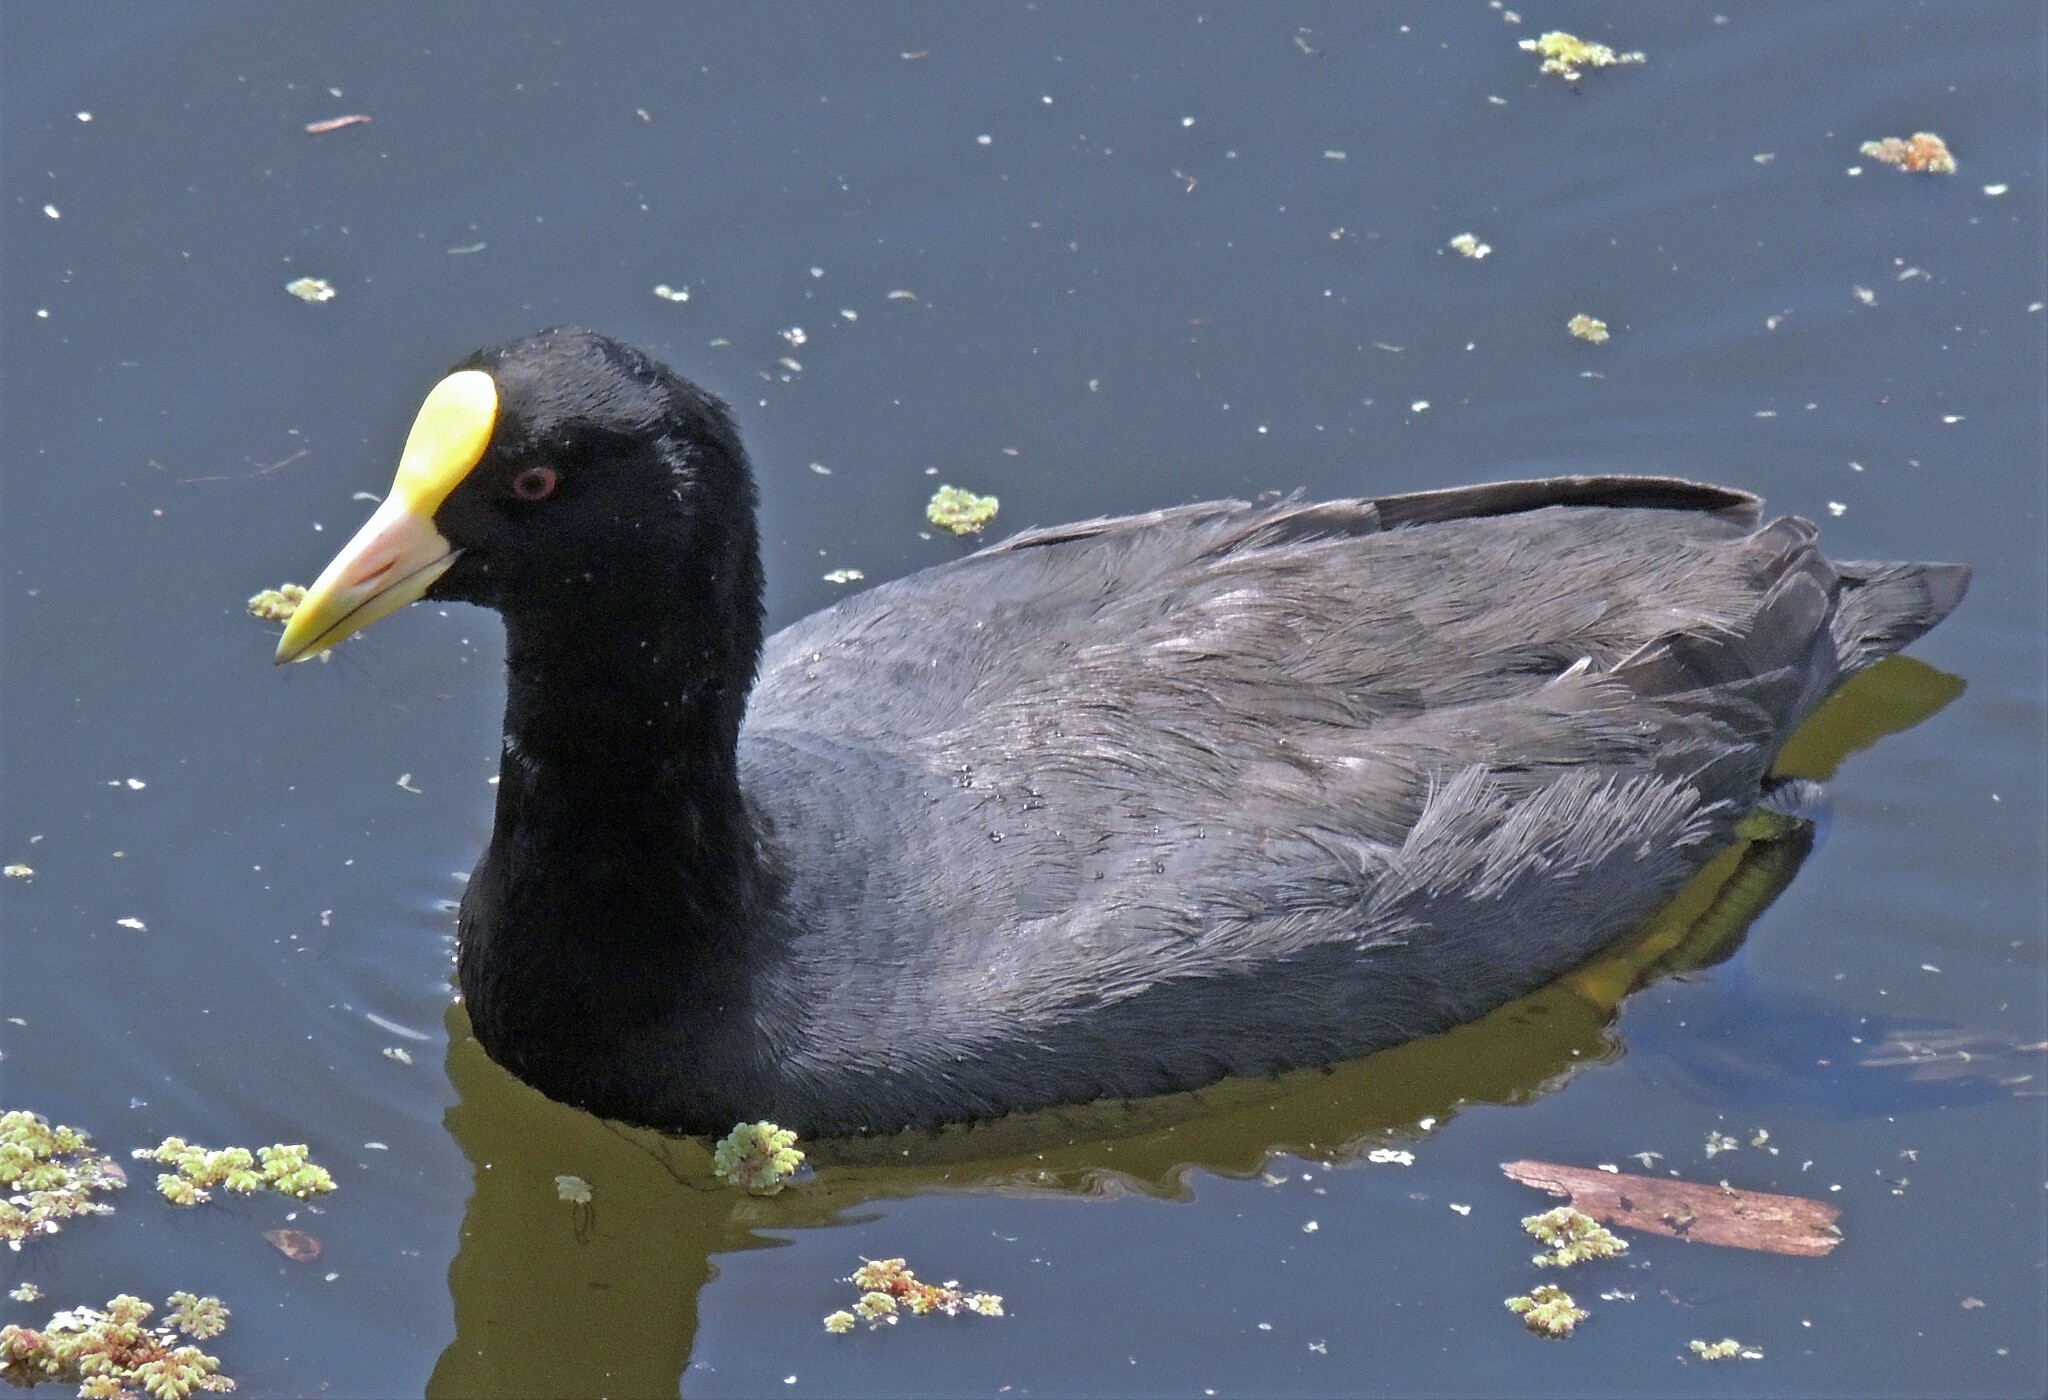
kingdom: Animalia
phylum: Chordata
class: Aves
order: Gruiformes
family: Rallidae
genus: Fulica
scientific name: Fulica leucoptera
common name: White-winged coot
